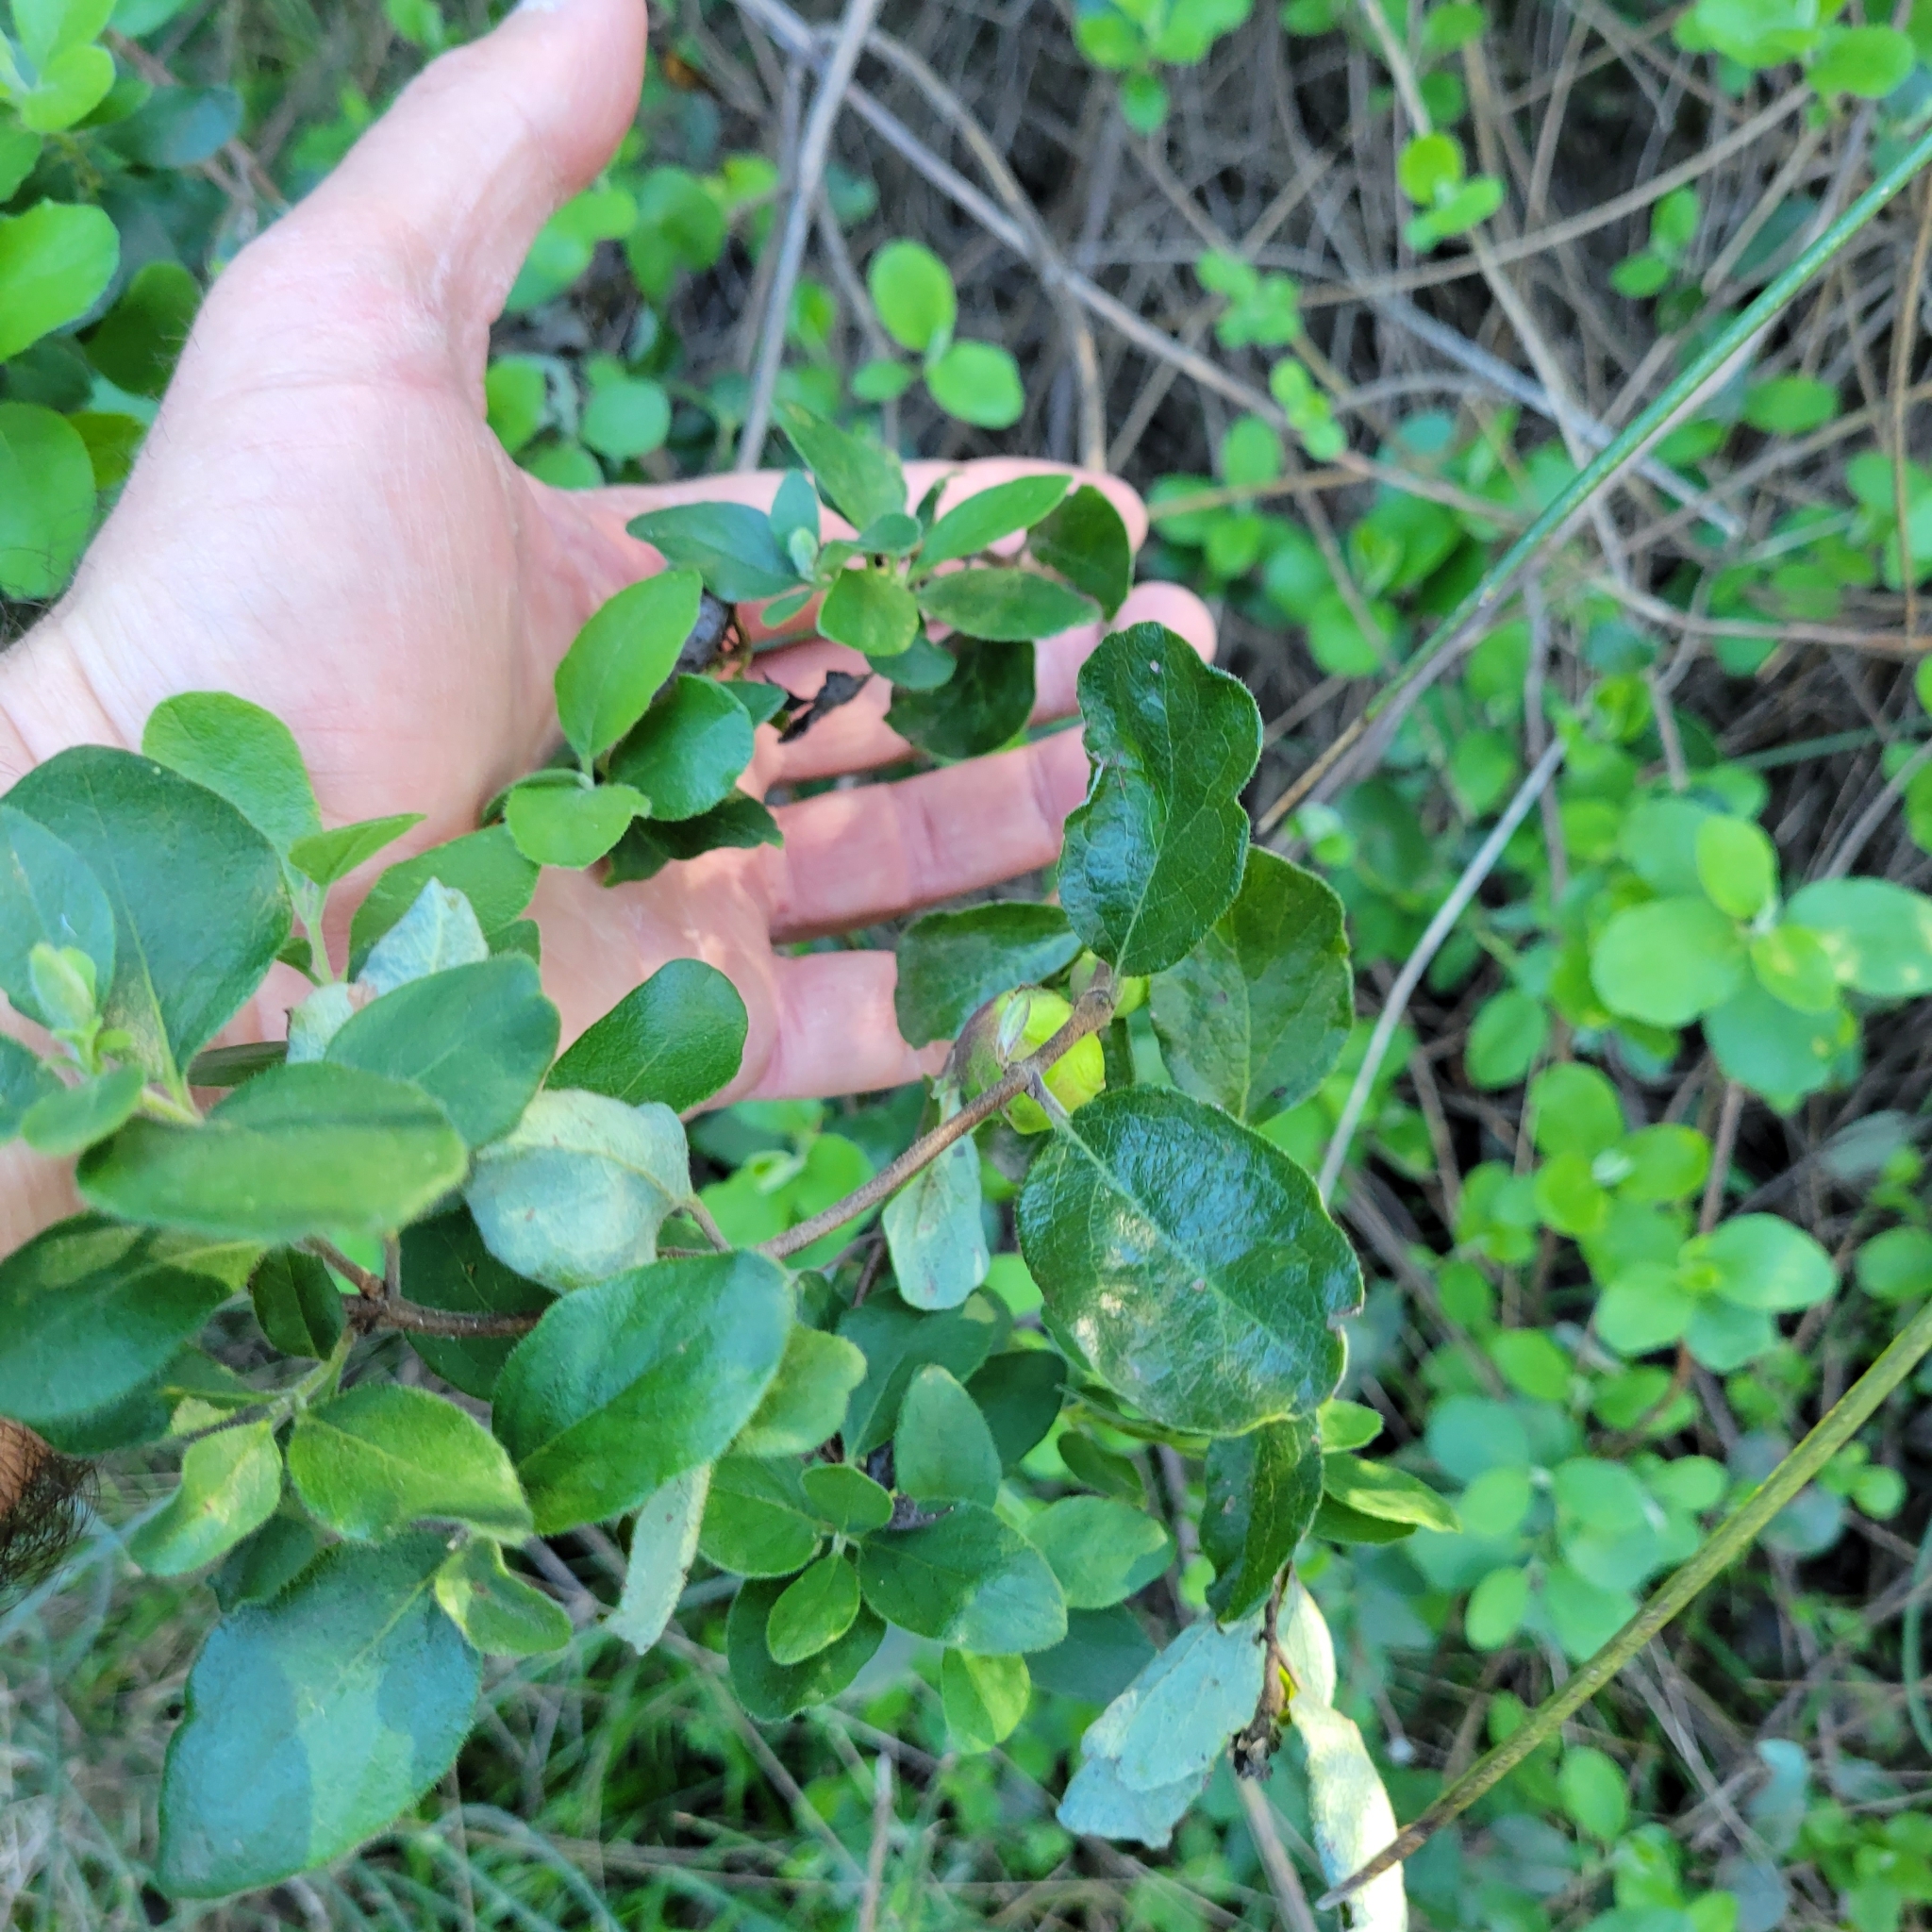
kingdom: Plantae
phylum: Tracheophyta
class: Magnoliopsida
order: Dipsacales
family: Caprifoliaceae
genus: Lonicera
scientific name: Lonicera subspicata
